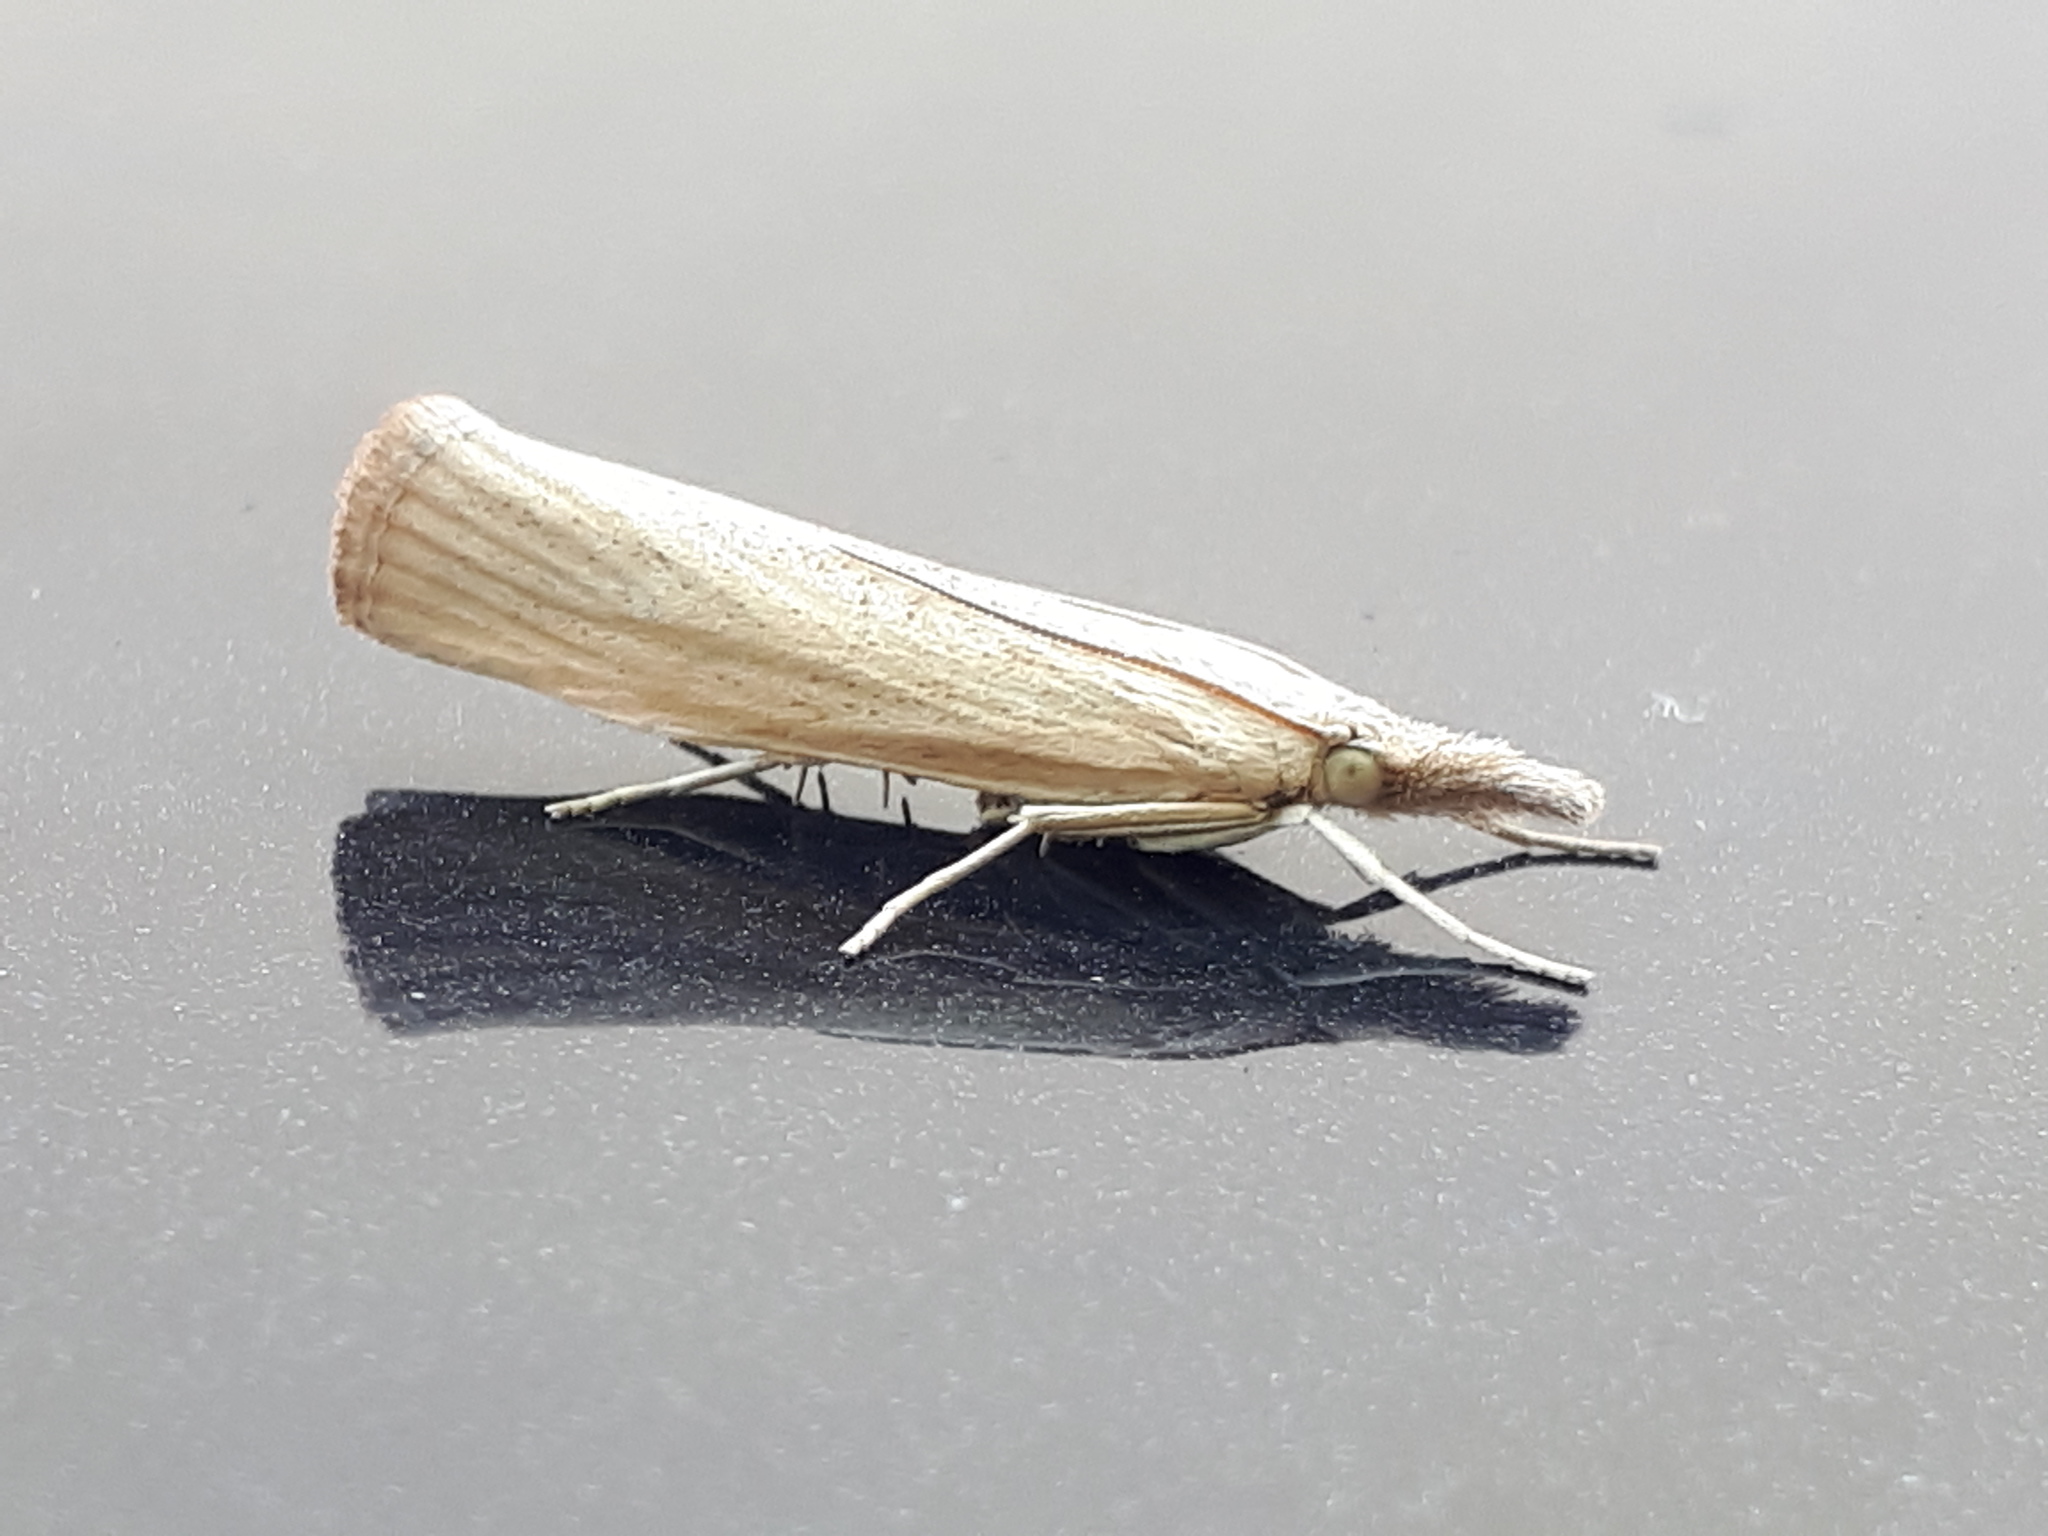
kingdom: Animalia
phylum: Arthropoda
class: Insecta
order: Lepidoptera
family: Crambidae
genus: Pediasia
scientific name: Pediasia luteella
